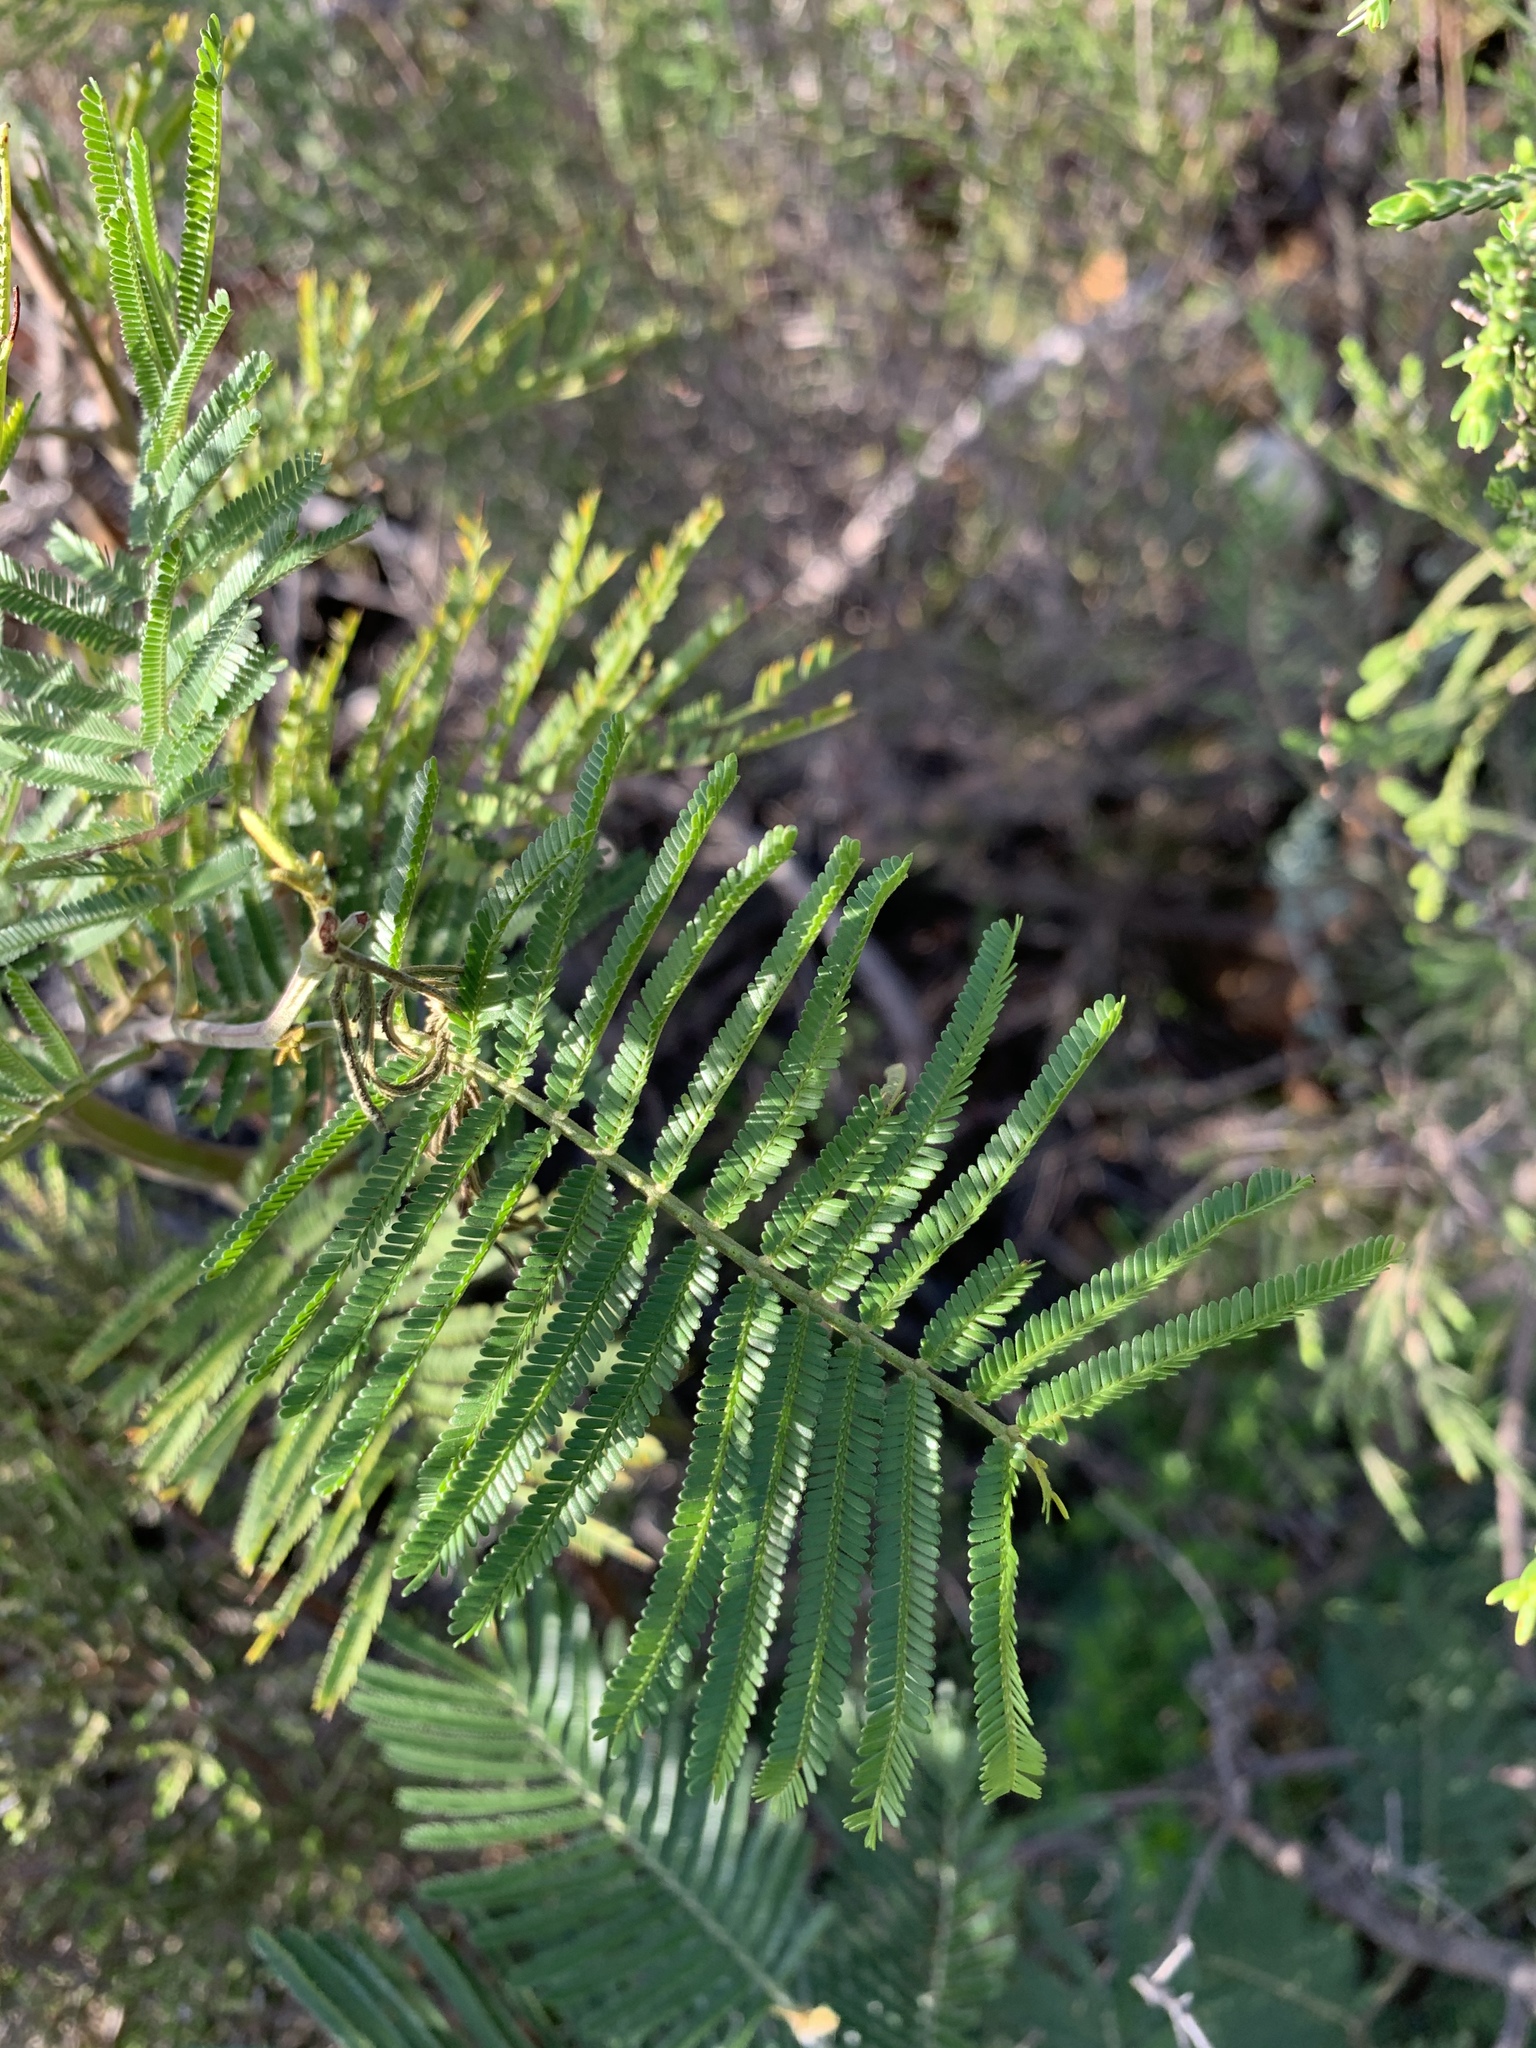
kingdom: Plantae
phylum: Tracheophyta
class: Magnoliopsida
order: Fabales
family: Fabaceae
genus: Acacia
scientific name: Acacia mearnsii
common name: Black wattle
